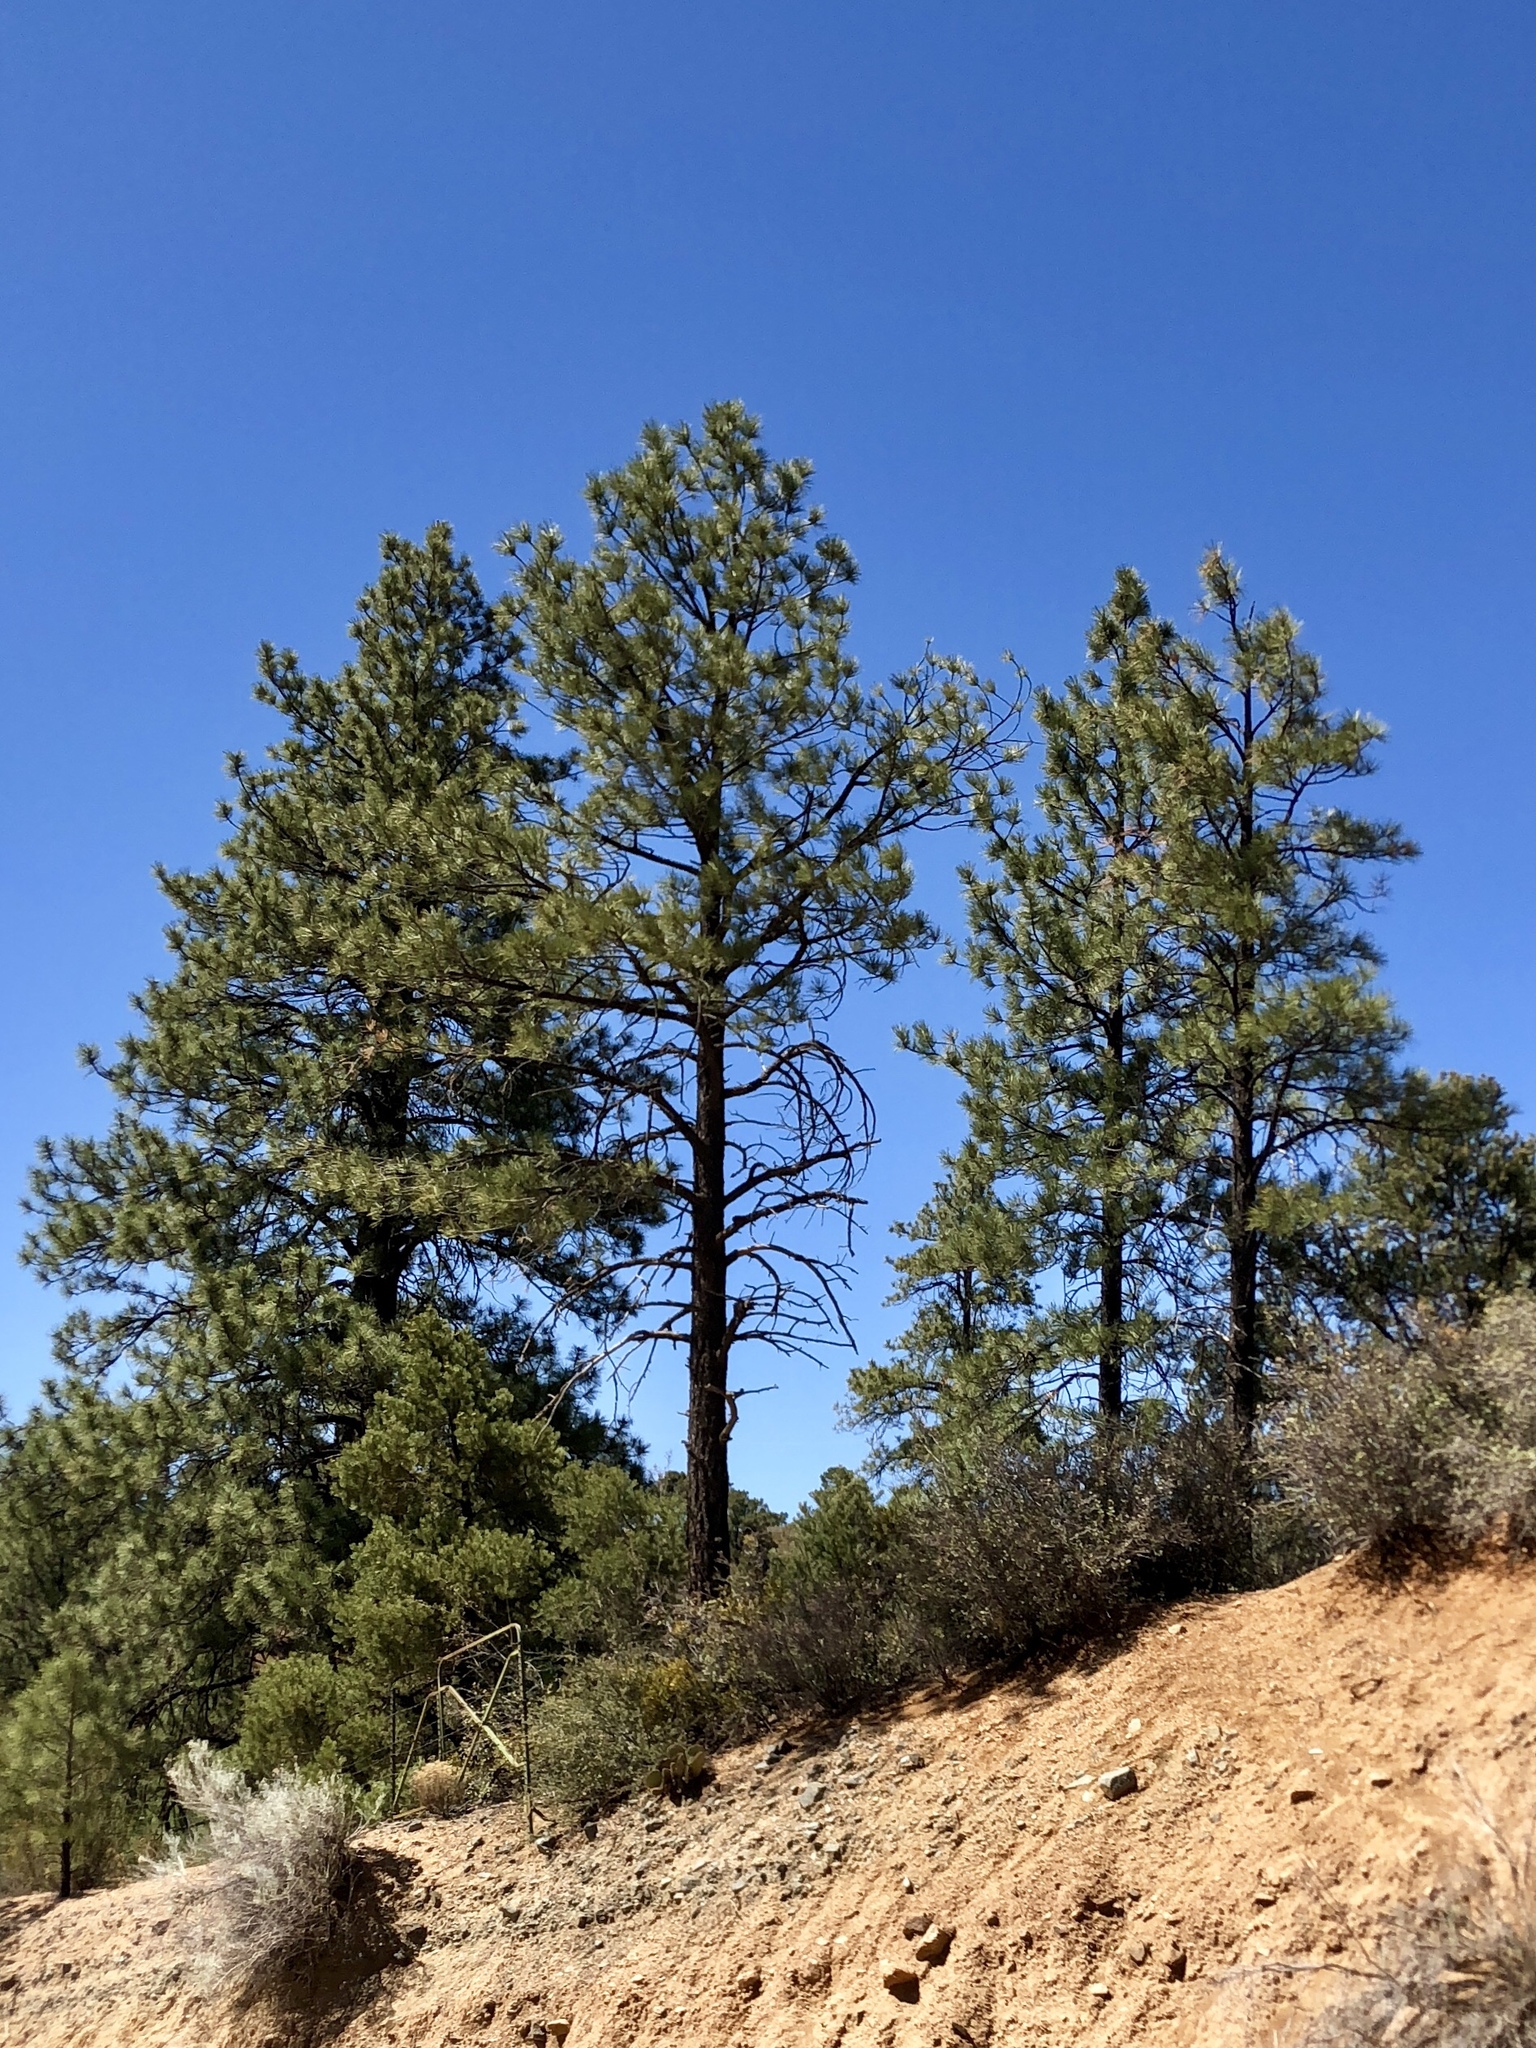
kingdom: Plantae
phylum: Tracheophyta
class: Pinopsida
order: Pinales
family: Pinaceae
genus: Pinus
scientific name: Pinus ponderosa
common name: Western yellow-pine
